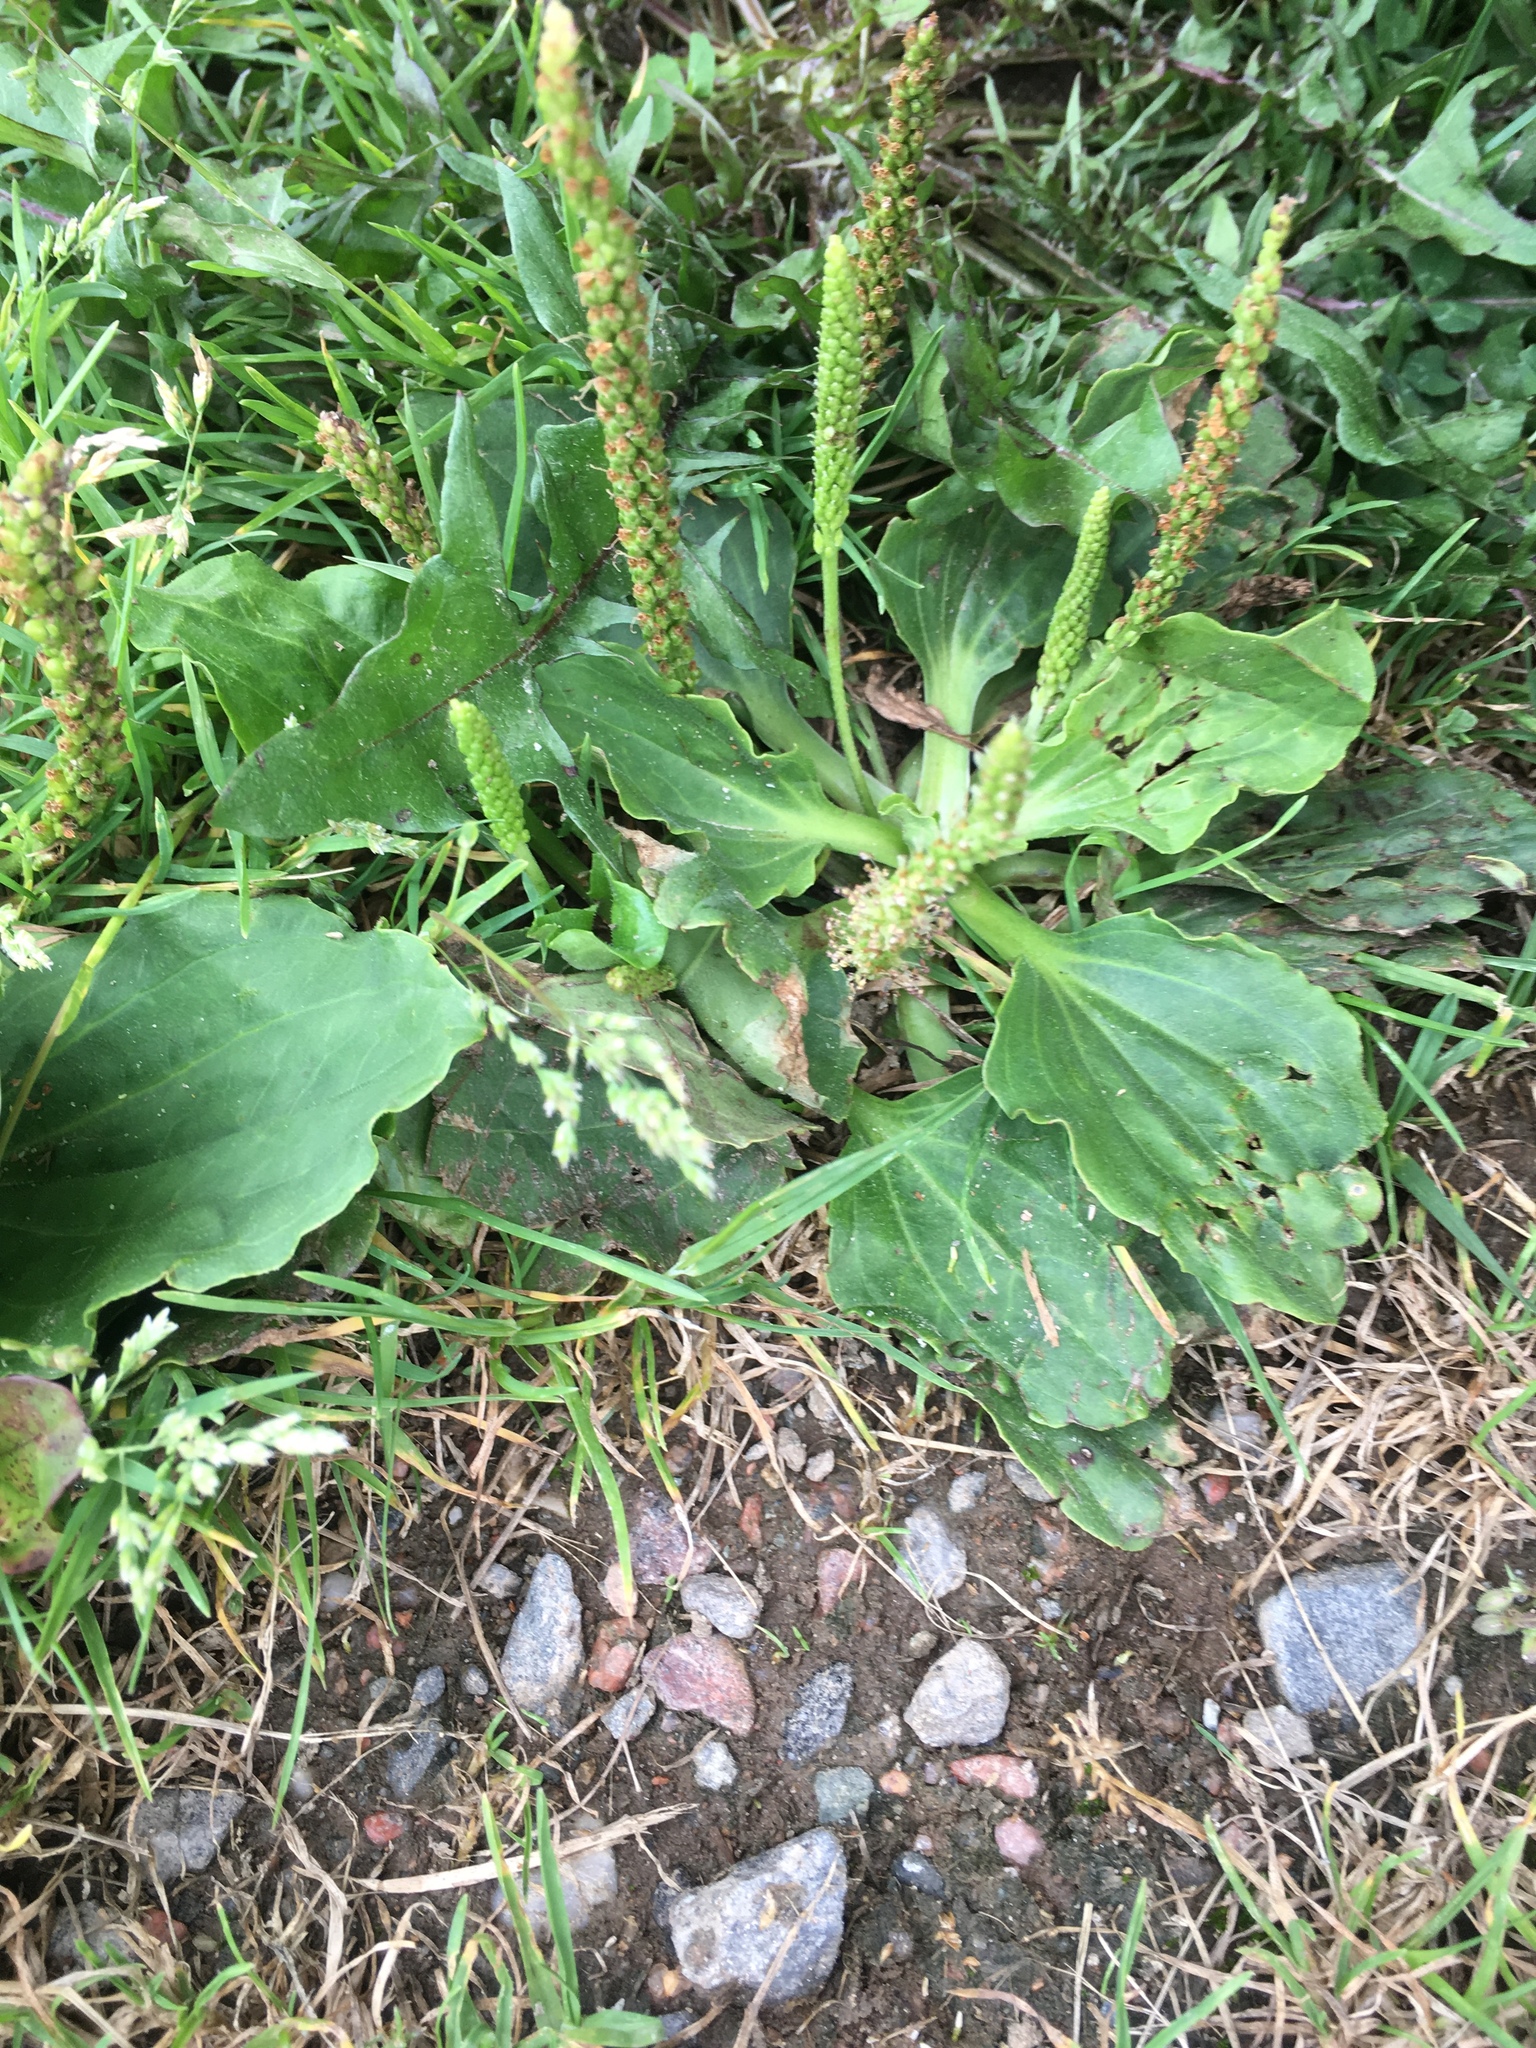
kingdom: Plantae
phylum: Tracheophyta
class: Magnoliopsida
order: Lamiales
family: Plantaginaceae
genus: Plantago
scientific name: Plantago major
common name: Common plantain
